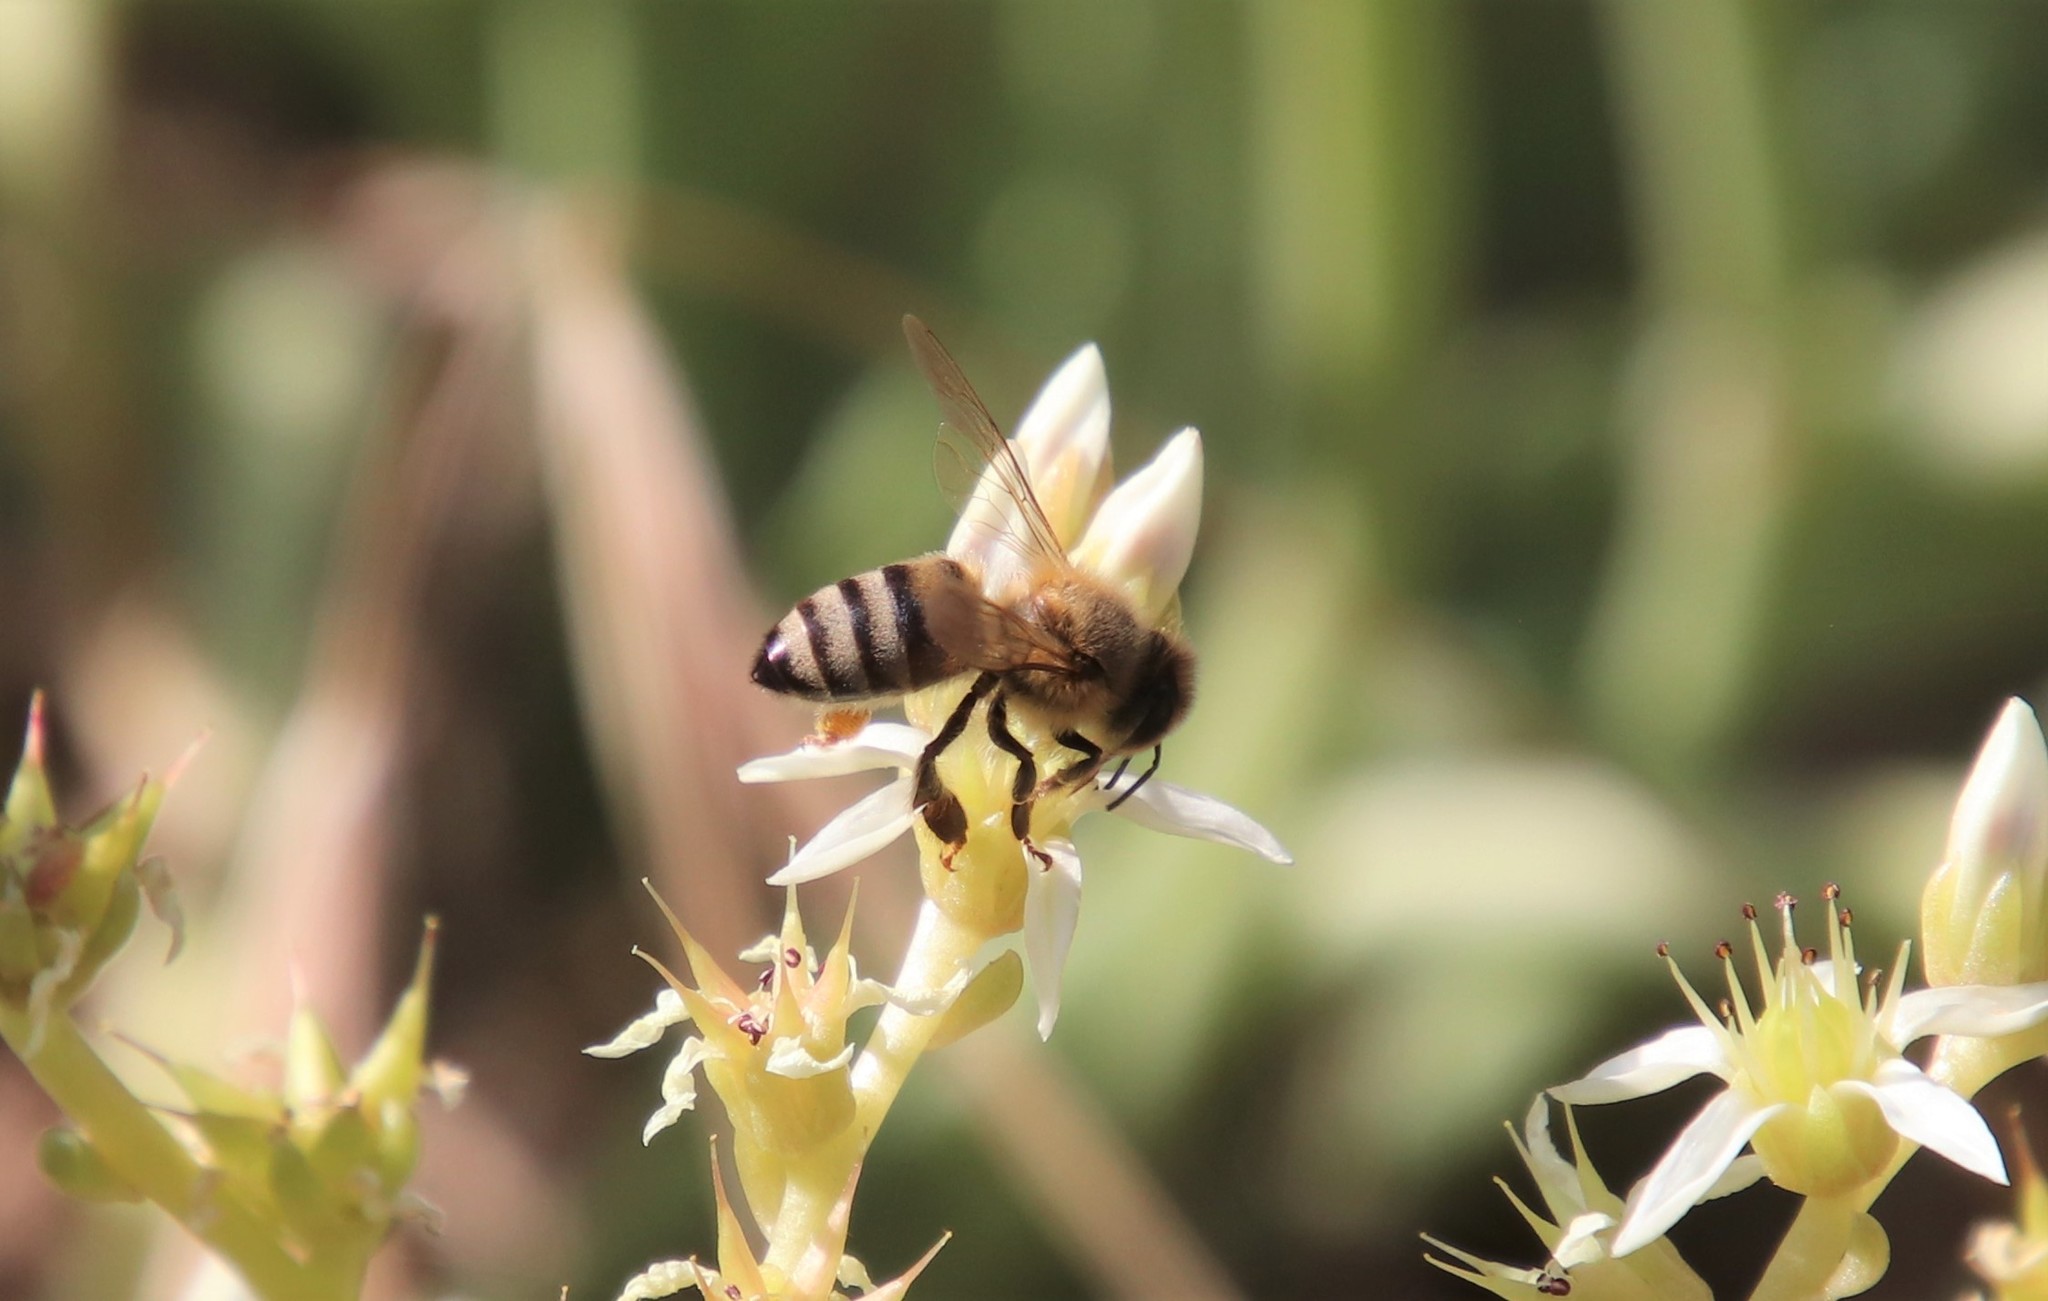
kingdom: Animalia
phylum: Arthropoda
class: Insecta
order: Hymenoptera
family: Apidae
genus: Apis
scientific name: Apis mellifera
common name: Honey bee
